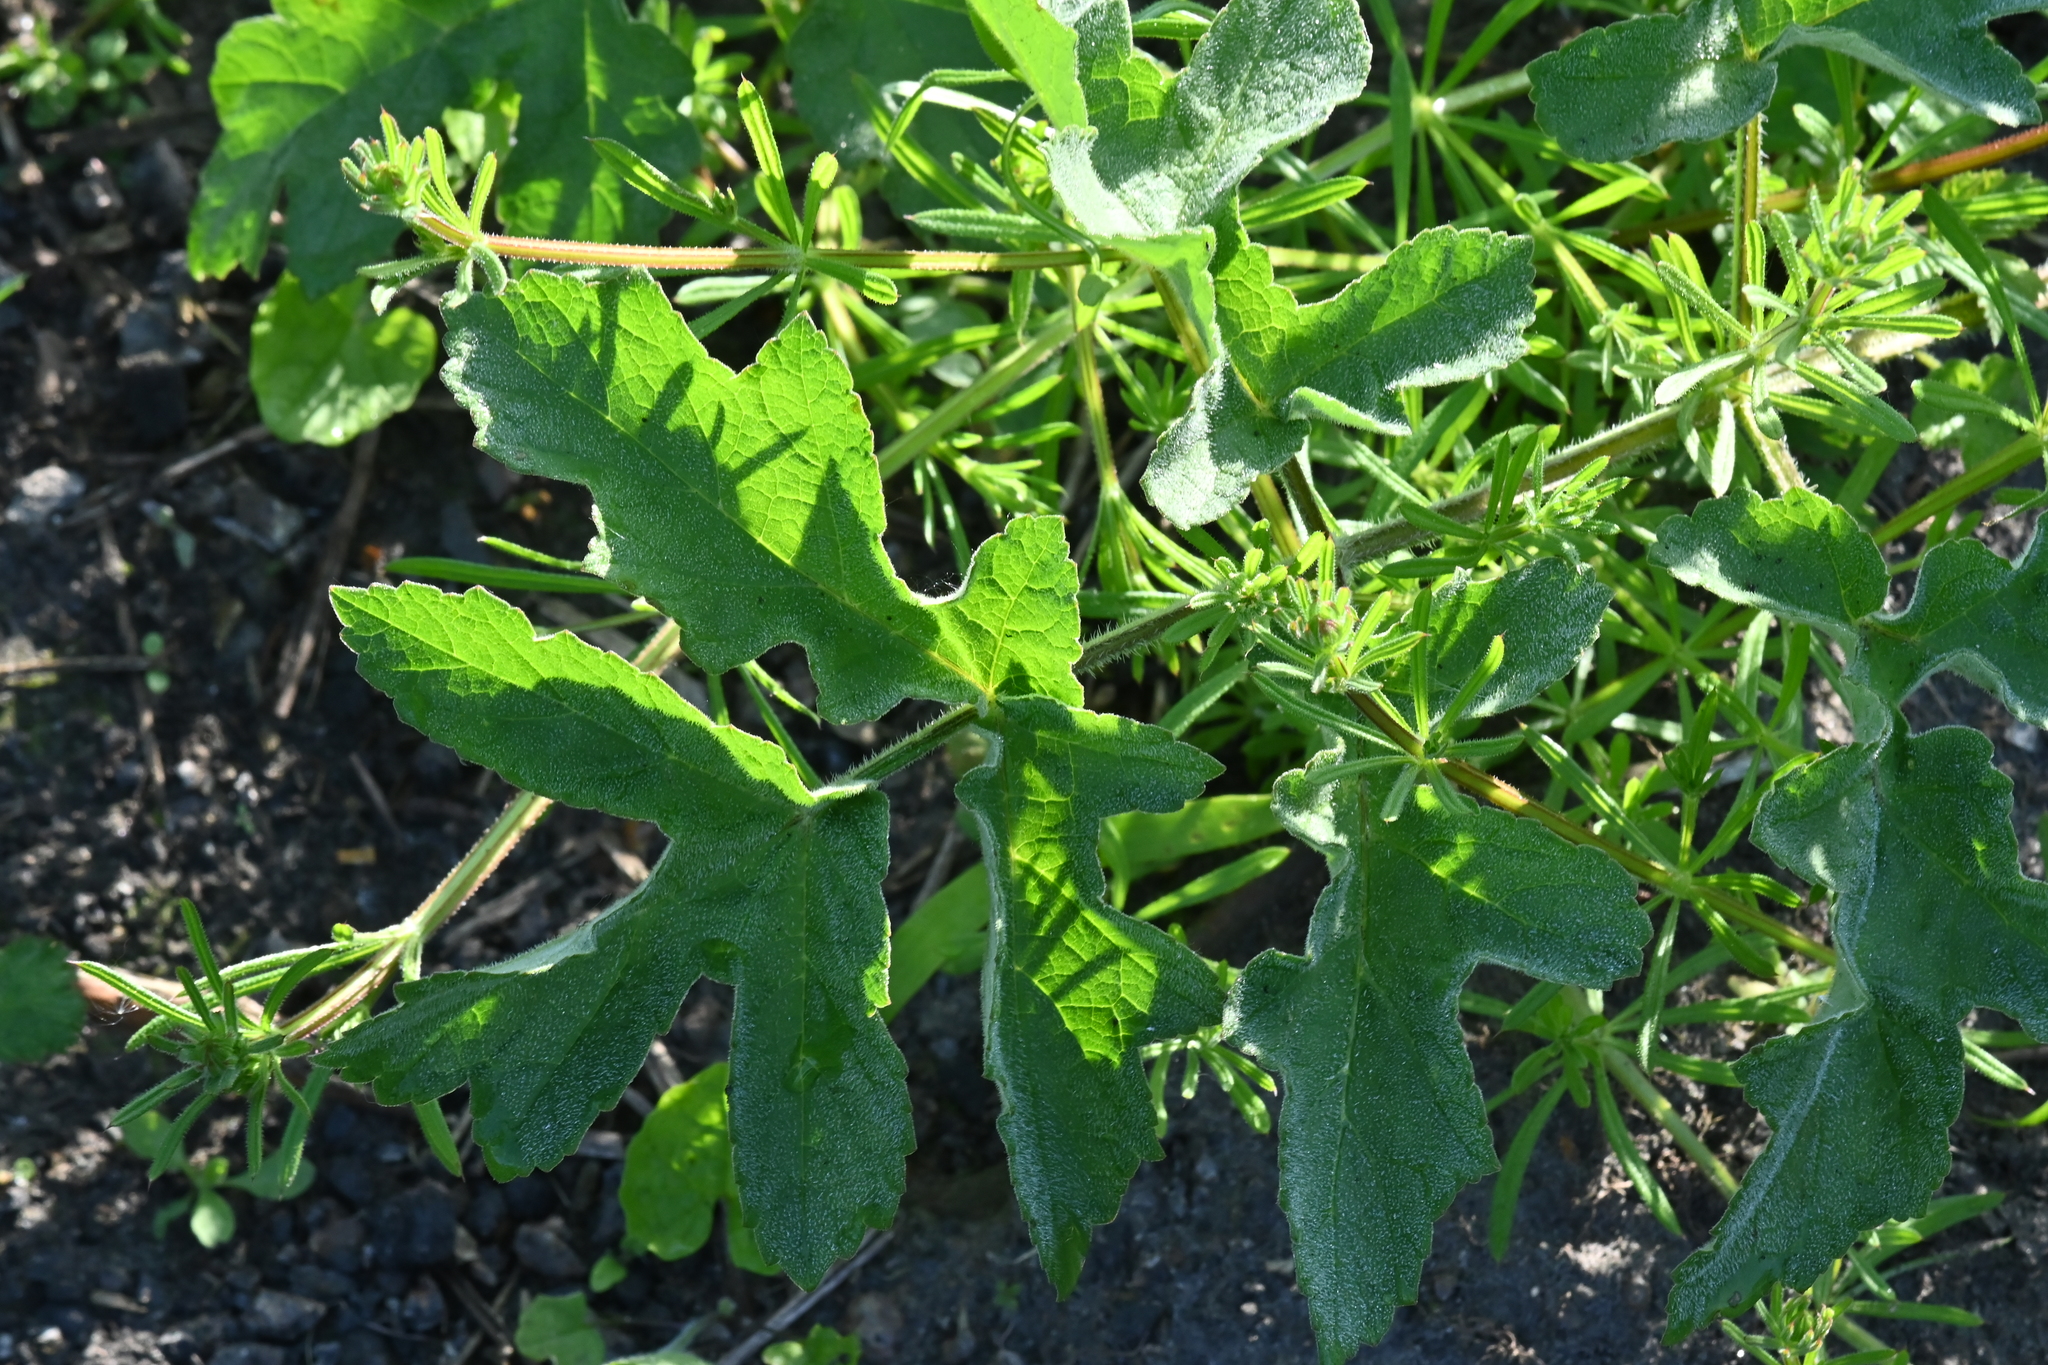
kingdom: Plantae
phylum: Tracheophyta
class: Magnoliopsida
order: Apiales
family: Apiaceae
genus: Heracleum
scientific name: Heracleum sphondylium
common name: Hogweed
